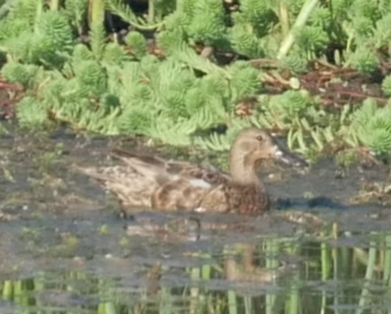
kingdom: Animalia
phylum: Chordata
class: Aves
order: Anseriformes
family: Anatidae
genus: Spatula
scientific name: Spatula cyanoptera
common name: Cinnamon teal
